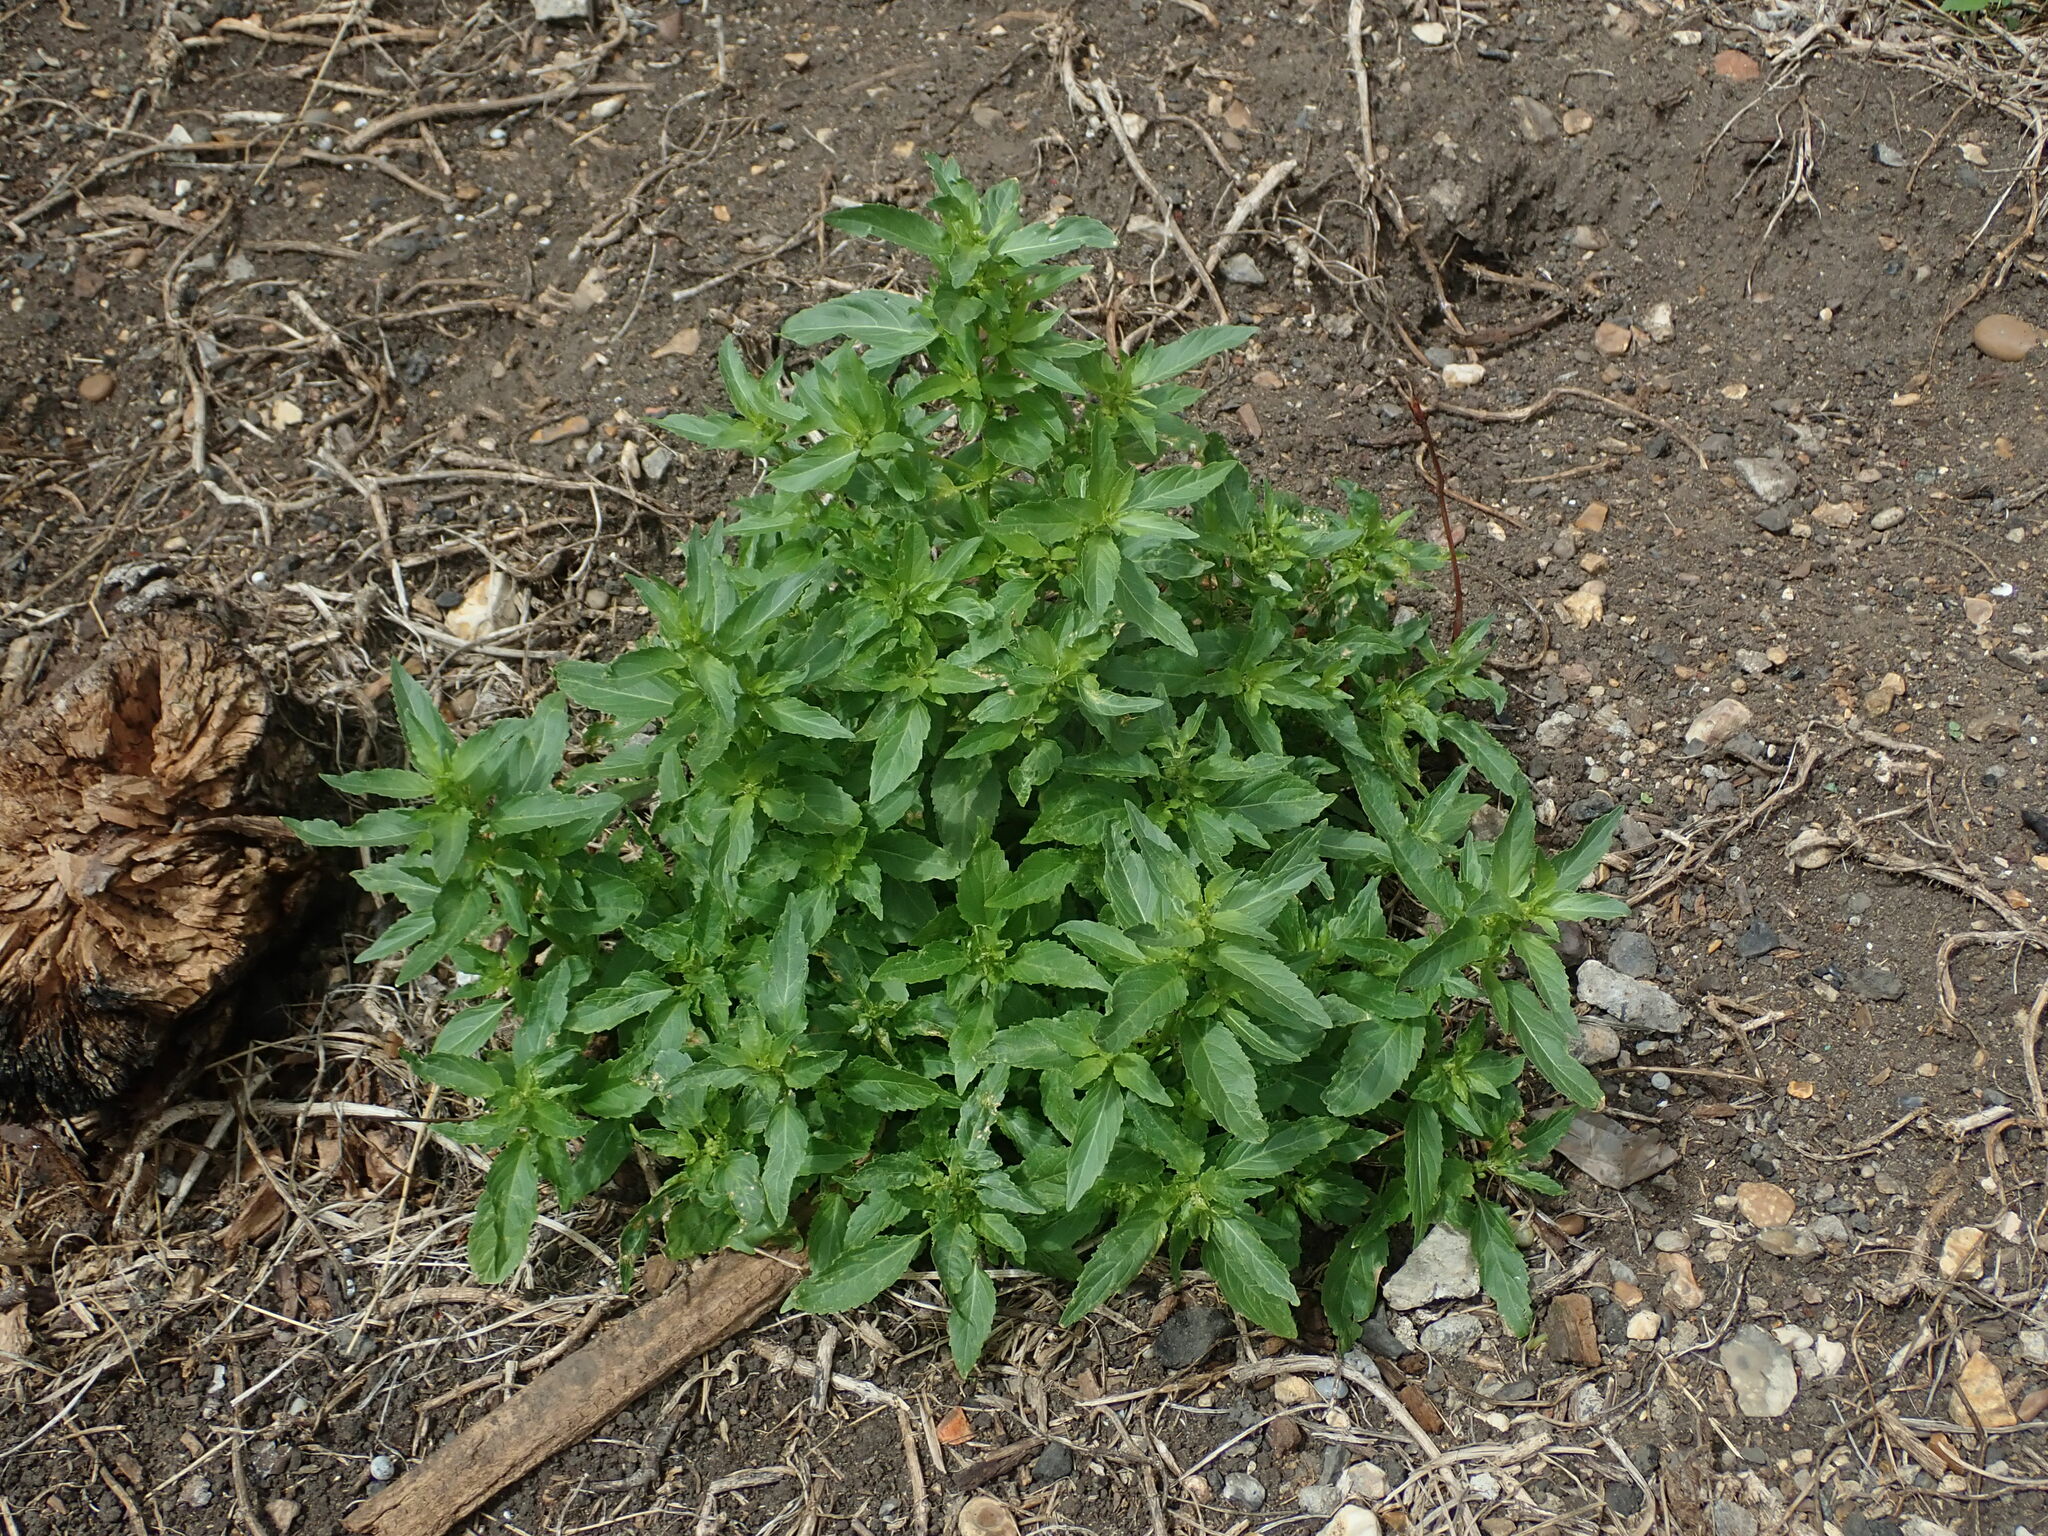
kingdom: Plantae
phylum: Tracheophyta
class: Magnoliopsida
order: Malpighiales
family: Euphorbiaceae
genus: Mercurialis
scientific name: Mercurialis annua
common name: Annual mercury
